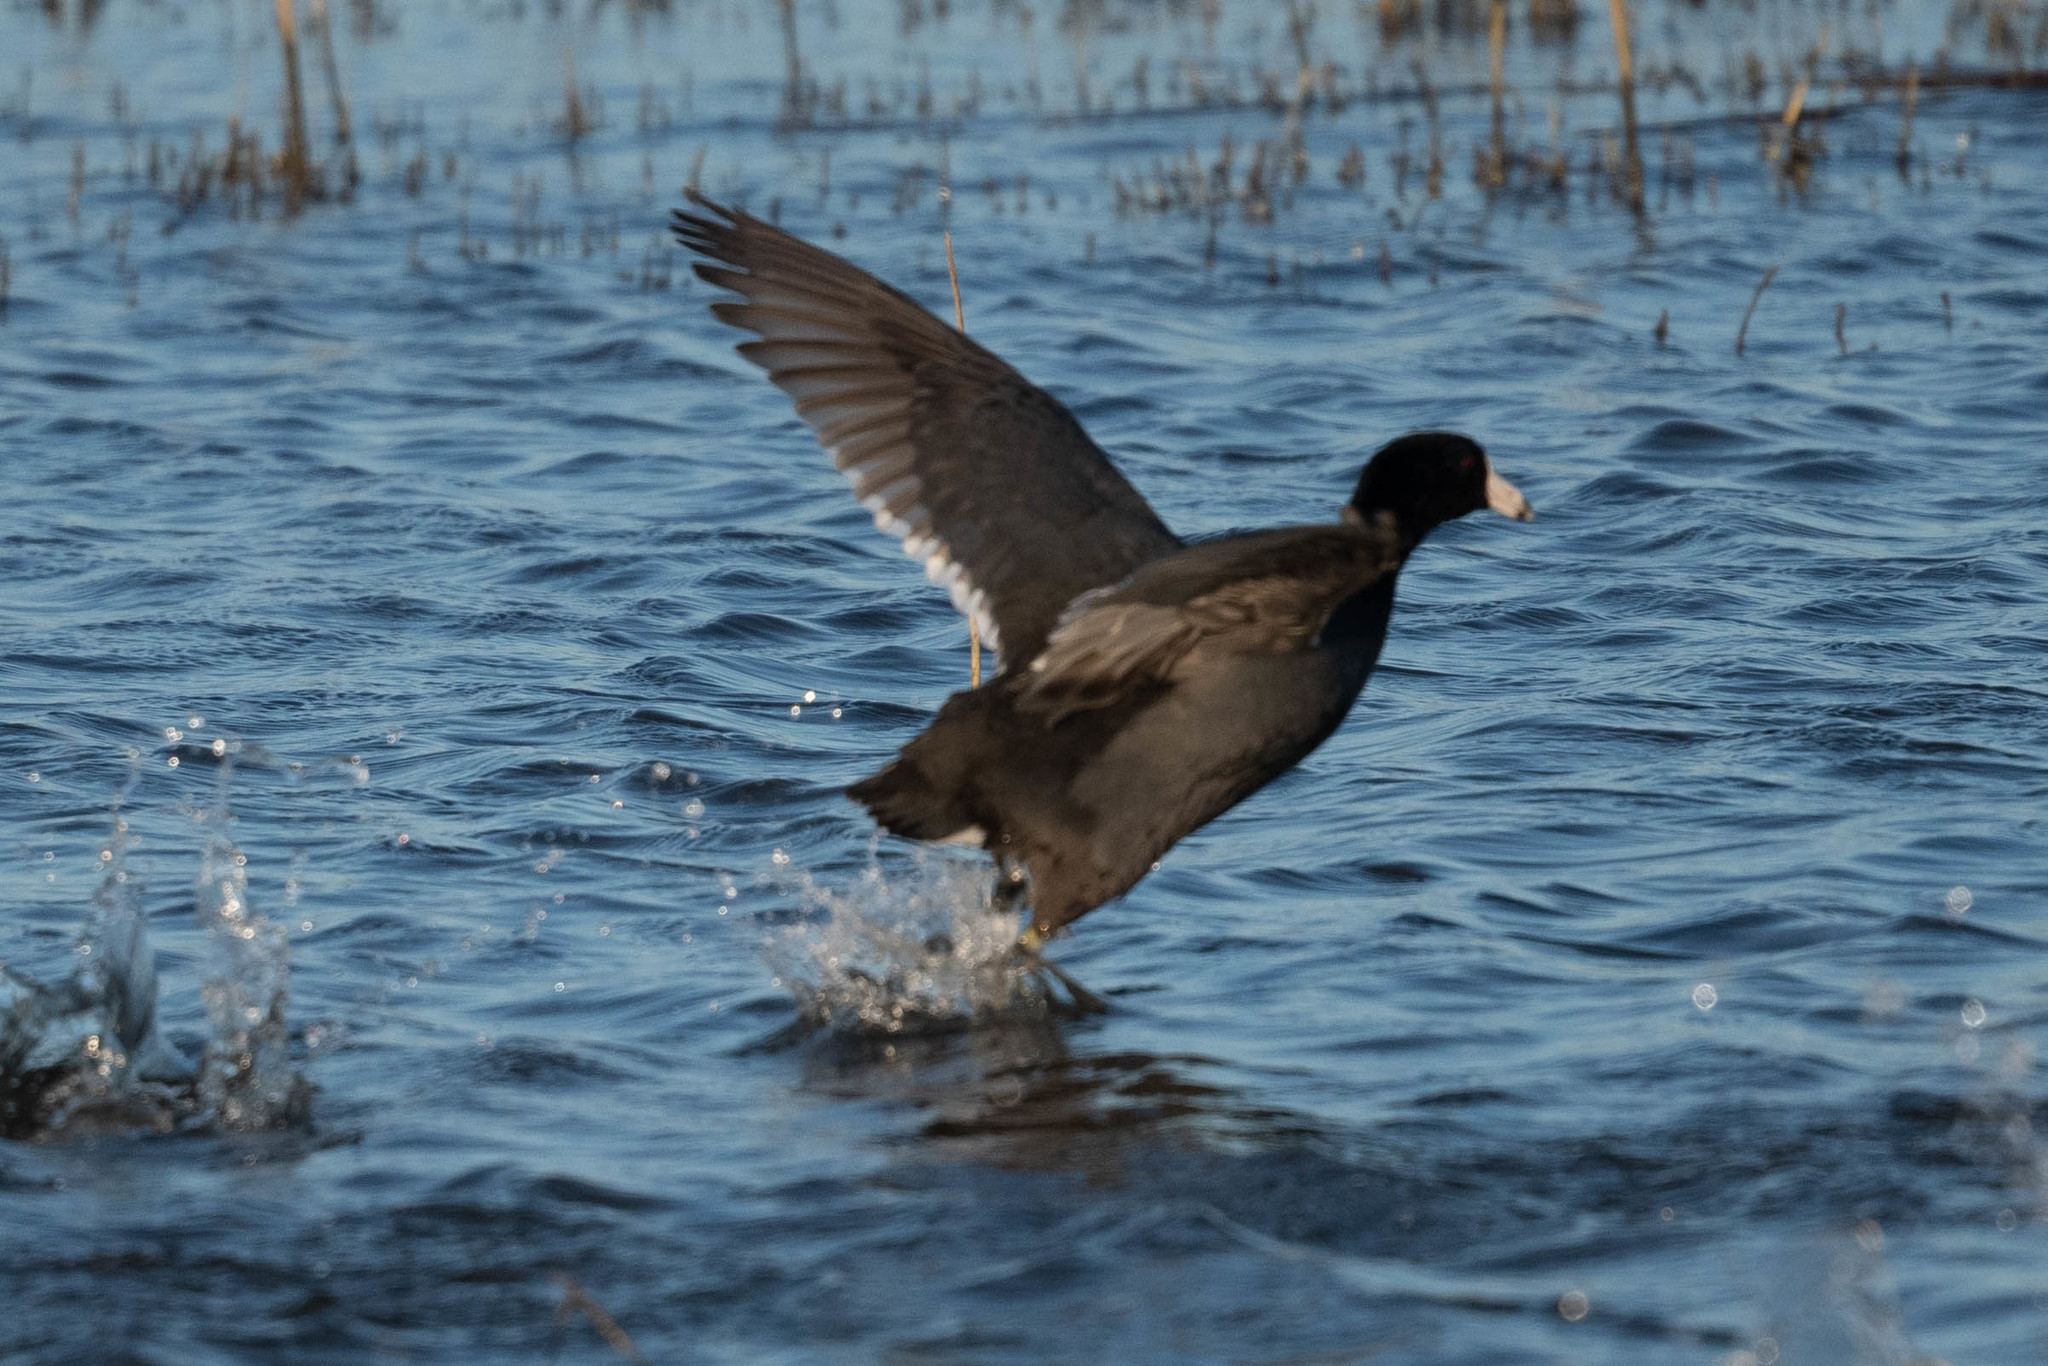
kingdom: Animalia
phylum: Chordata
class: Aves
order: Gruiformes
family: Rallidae
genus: Fulica
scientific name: Fulica americana
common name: American coot
